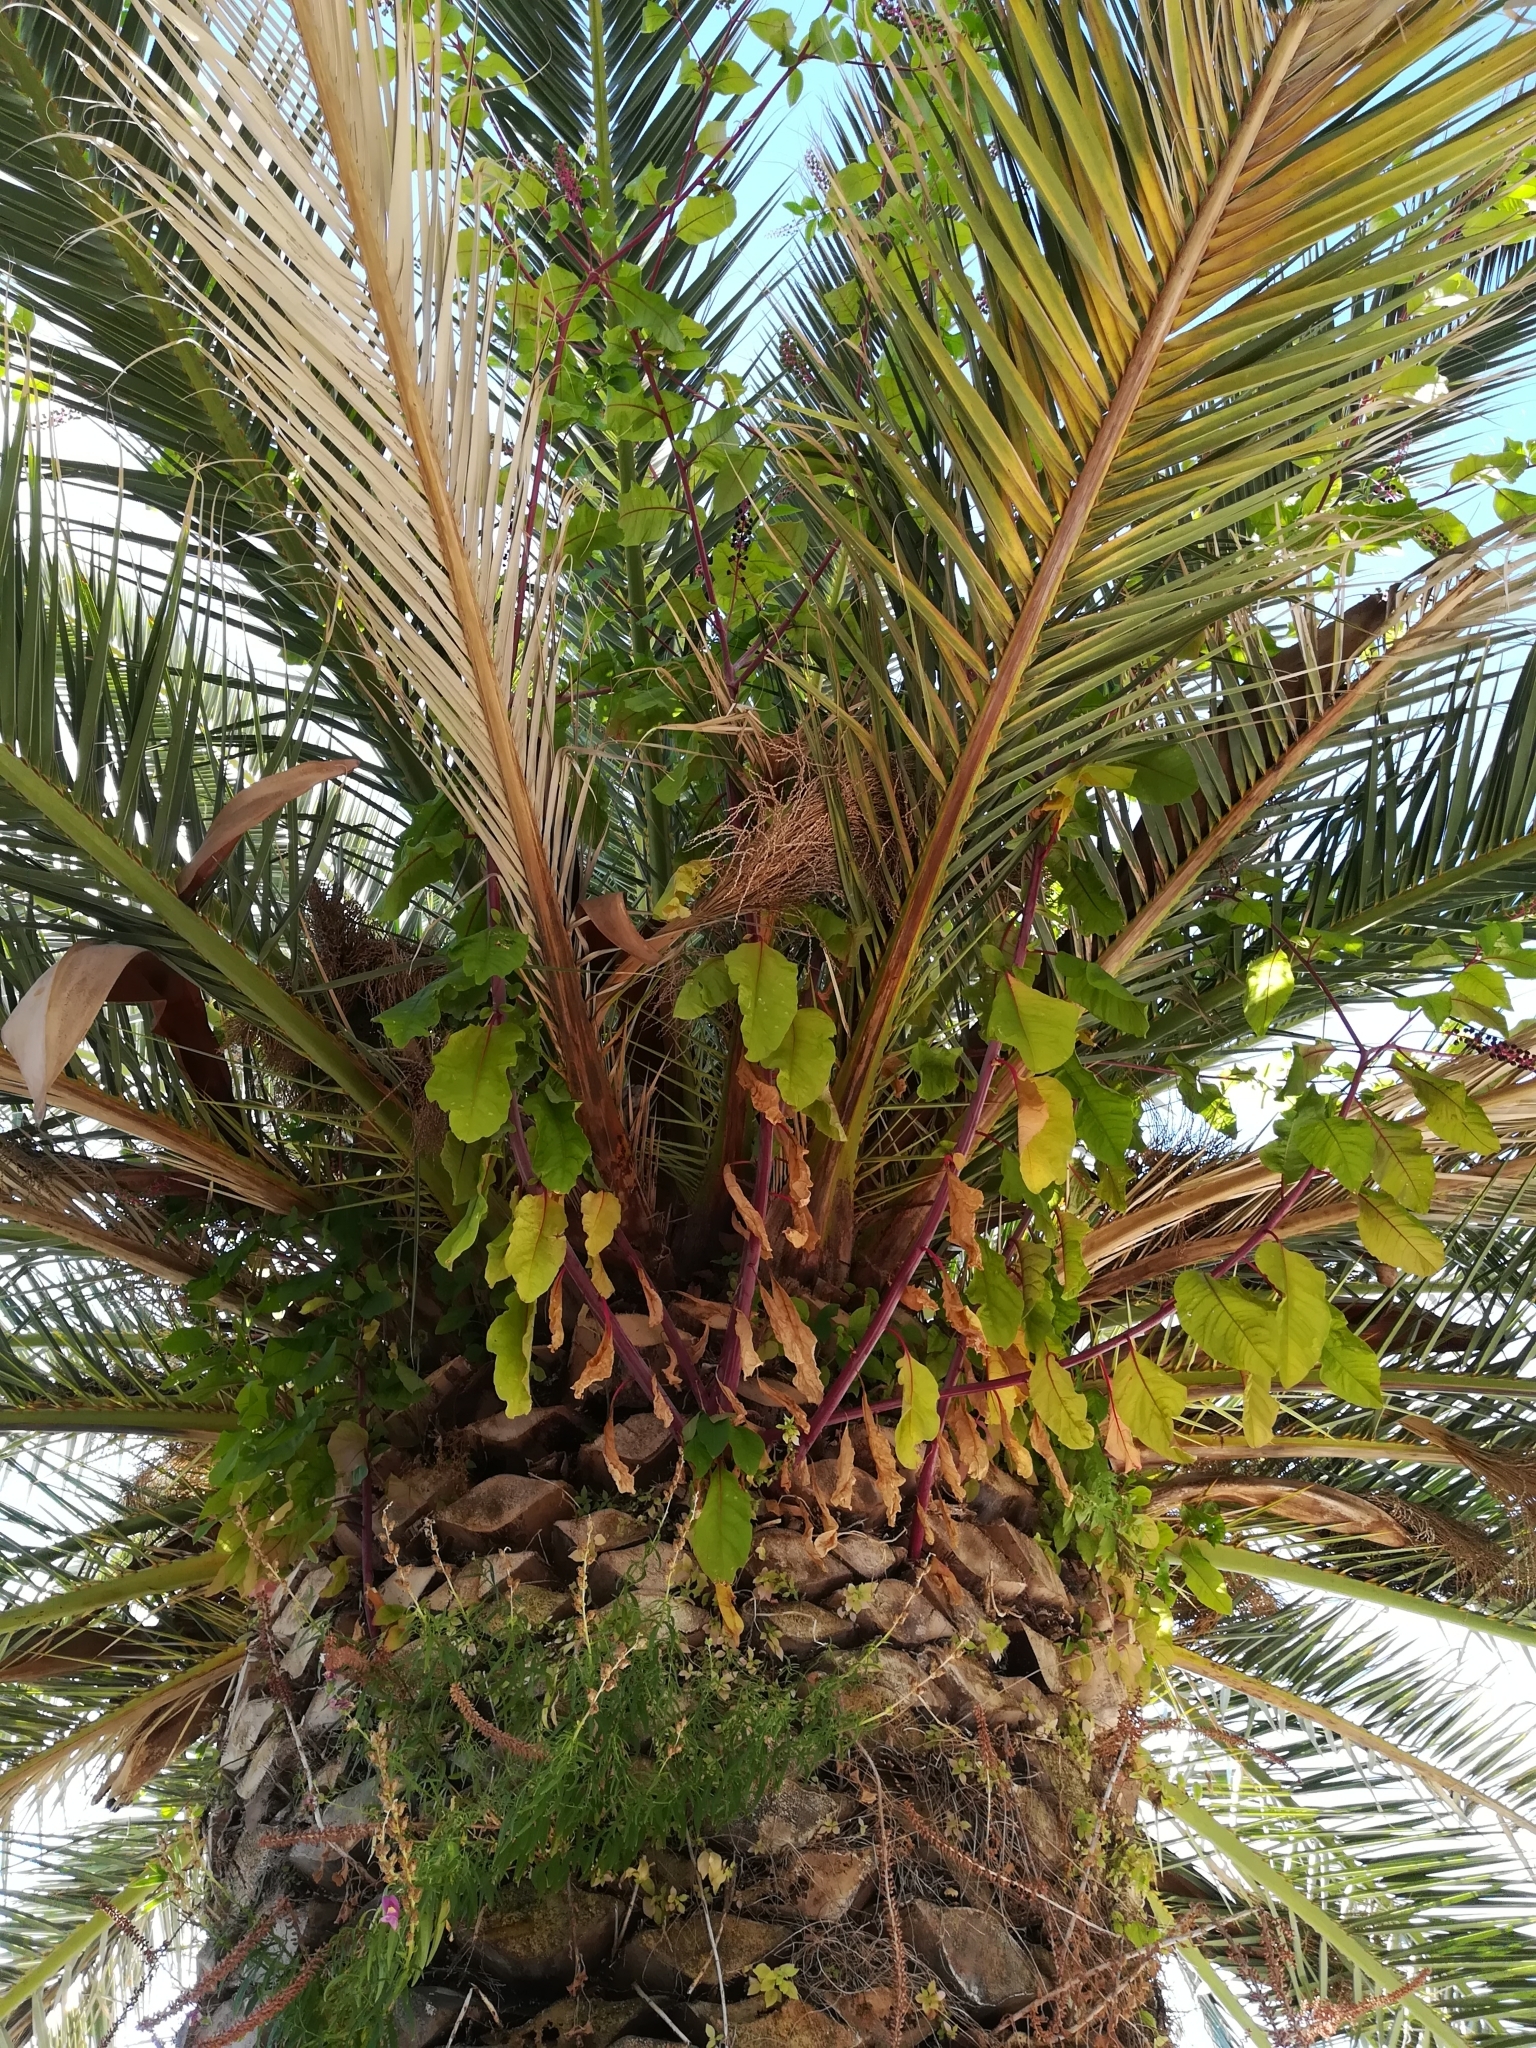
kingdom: Plantae
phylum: Tracheophyta
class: Magnoliopsida
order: Caryophyllales
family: Phytolaccaceae
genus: Phytolacca
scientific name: Phytolacca americana
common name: American pokeweed
